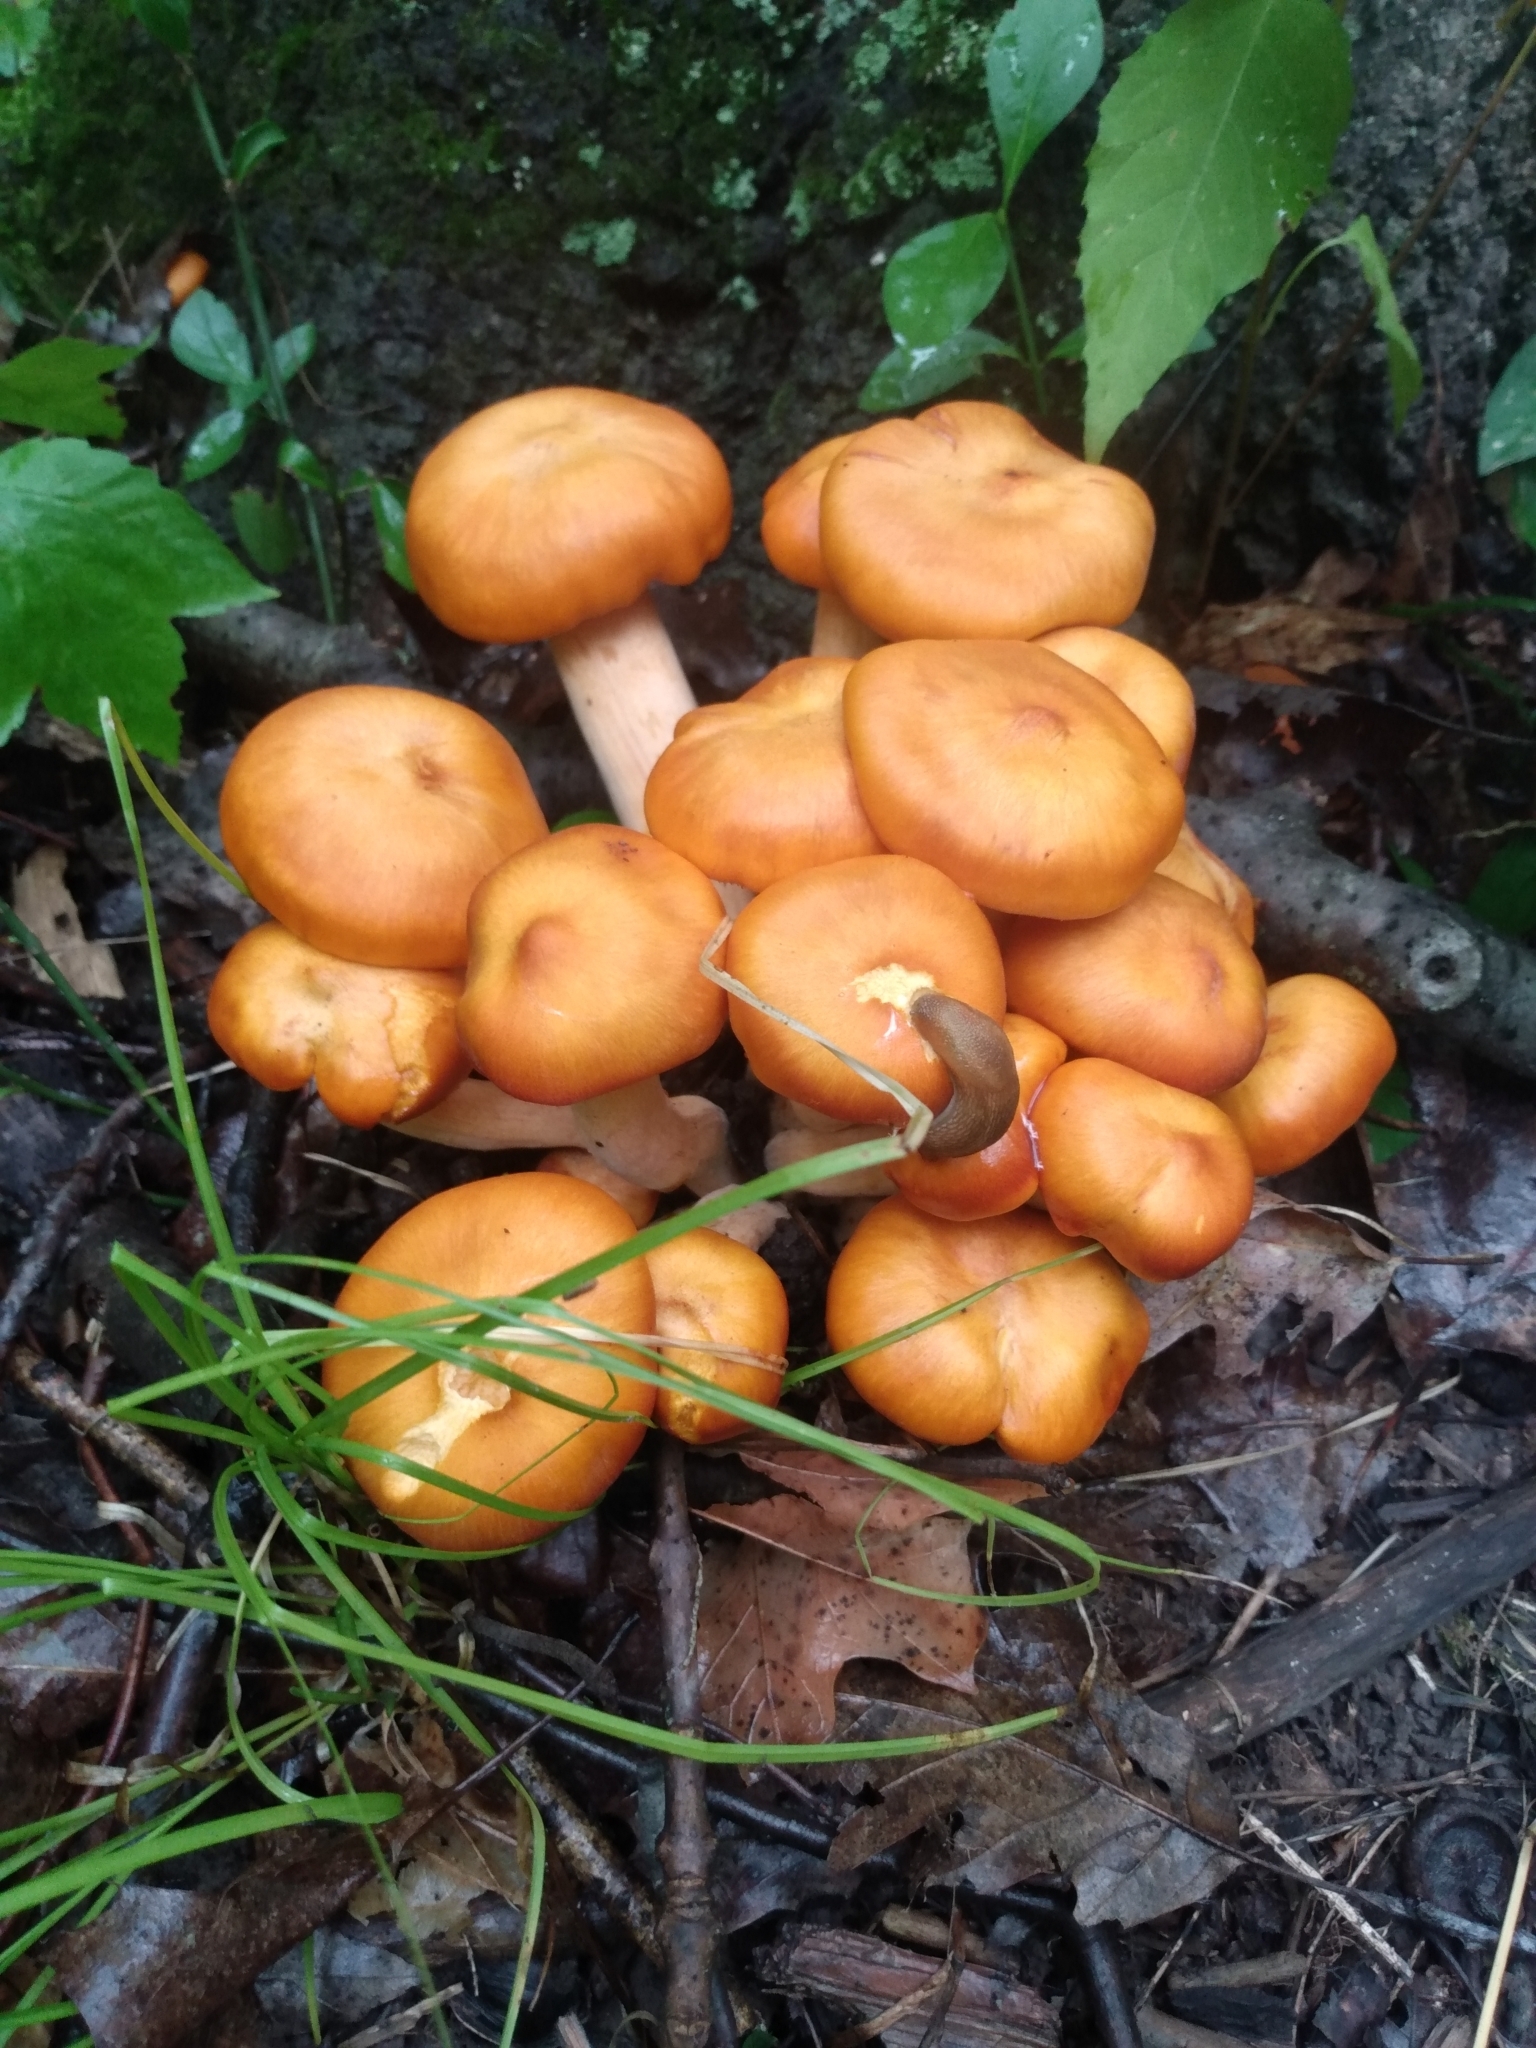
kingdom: Fungi
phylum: Basidiomycota
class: Agaricomycetes
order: Agaricales
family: Omphalotaceae
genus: Omphalotus
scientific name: Omphalotus illudens
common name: Jack o lantern
